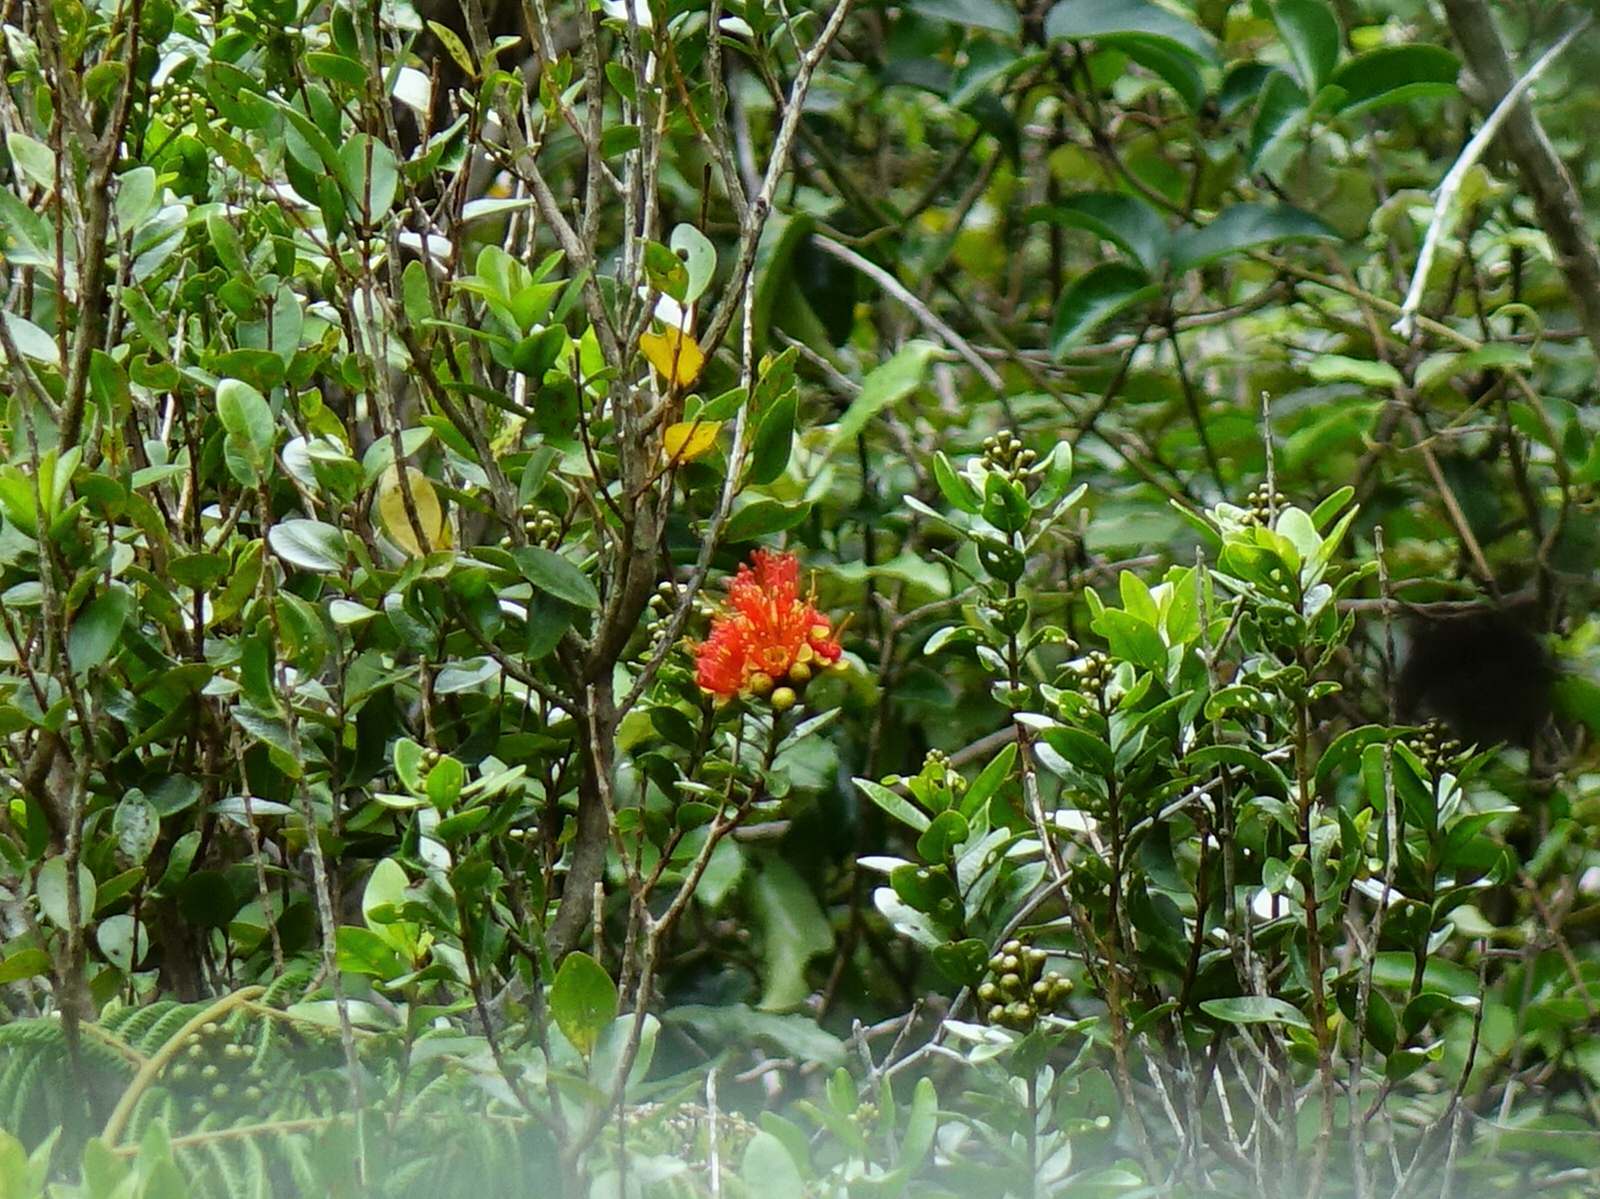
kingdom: Plantae
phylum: Tracheophyta
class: Magnoliopsida
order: Myrtales
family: Myrtaceae
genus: Metrosideros
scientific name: Metrosideros fulgens
